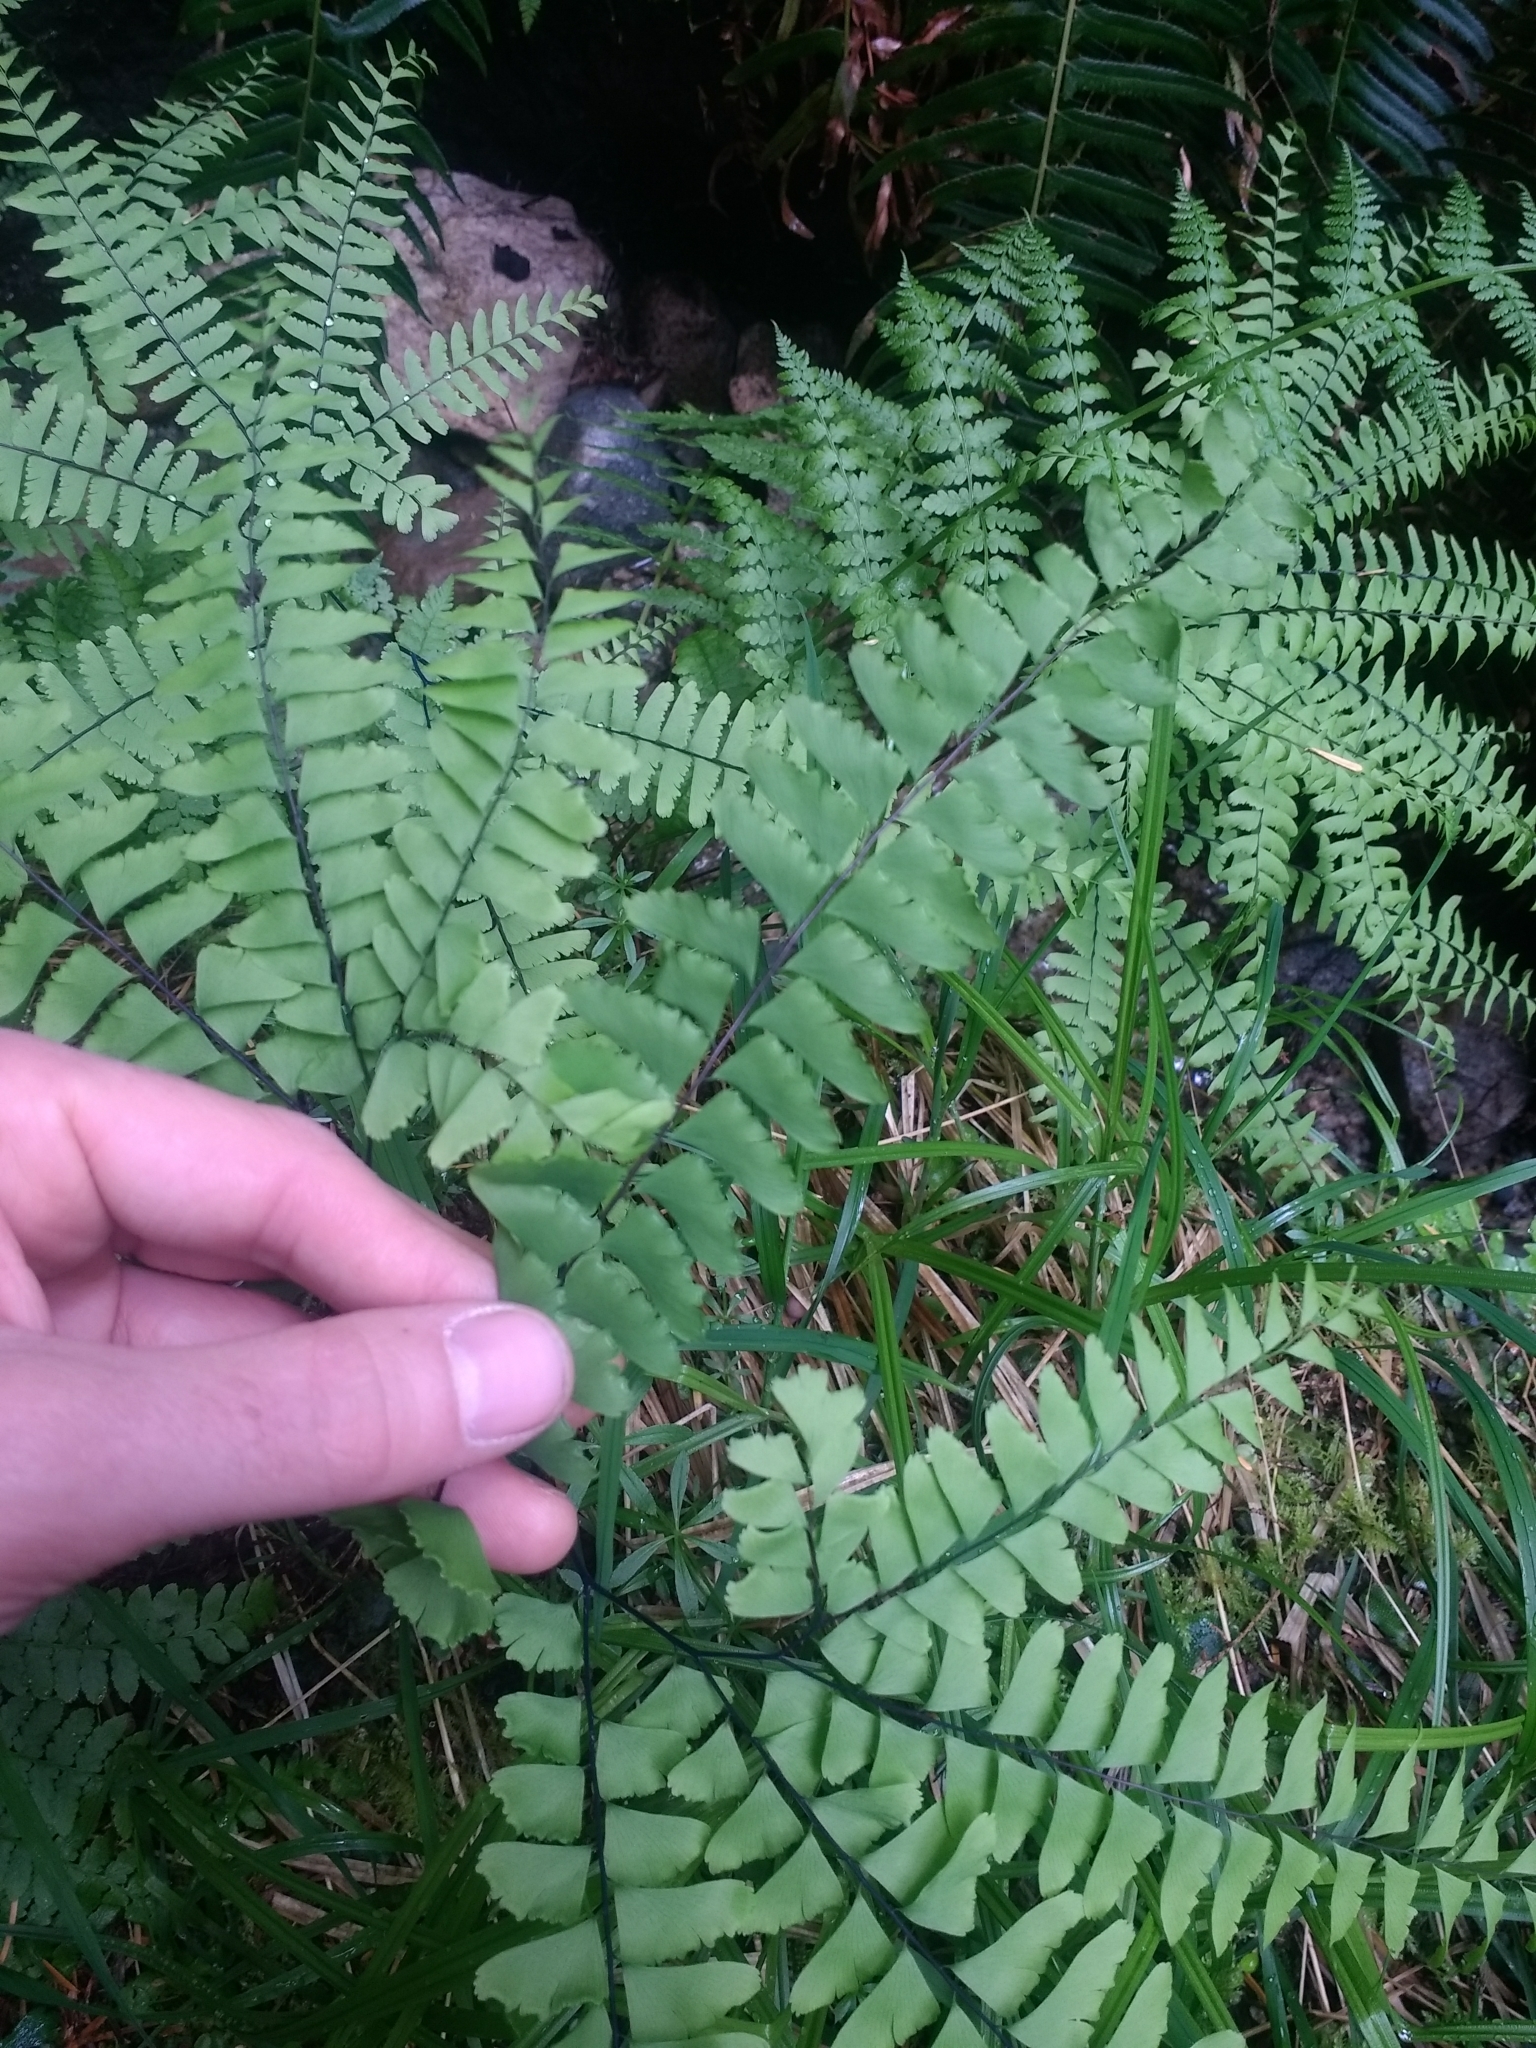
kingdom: Plantae
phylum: Tracheophyta
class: Polypodiopsida
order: Polypodiales
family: Pteridaceae
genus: Adiantum
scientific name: Adiantum aleuticum
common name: Aleutian maidenhair fern
